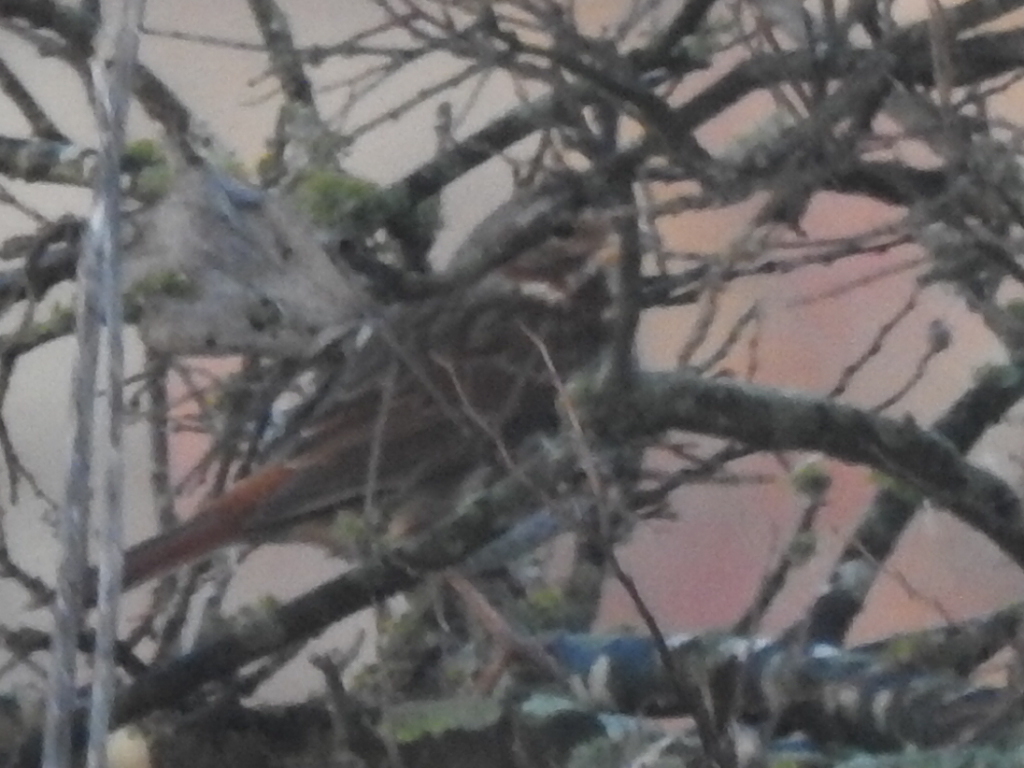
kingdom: Animalia
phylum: Chordata
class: Aves
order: Passeriformes
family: Passerellidae
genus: Passerella
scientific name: Passerella iliaca
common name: Fox sparrow
